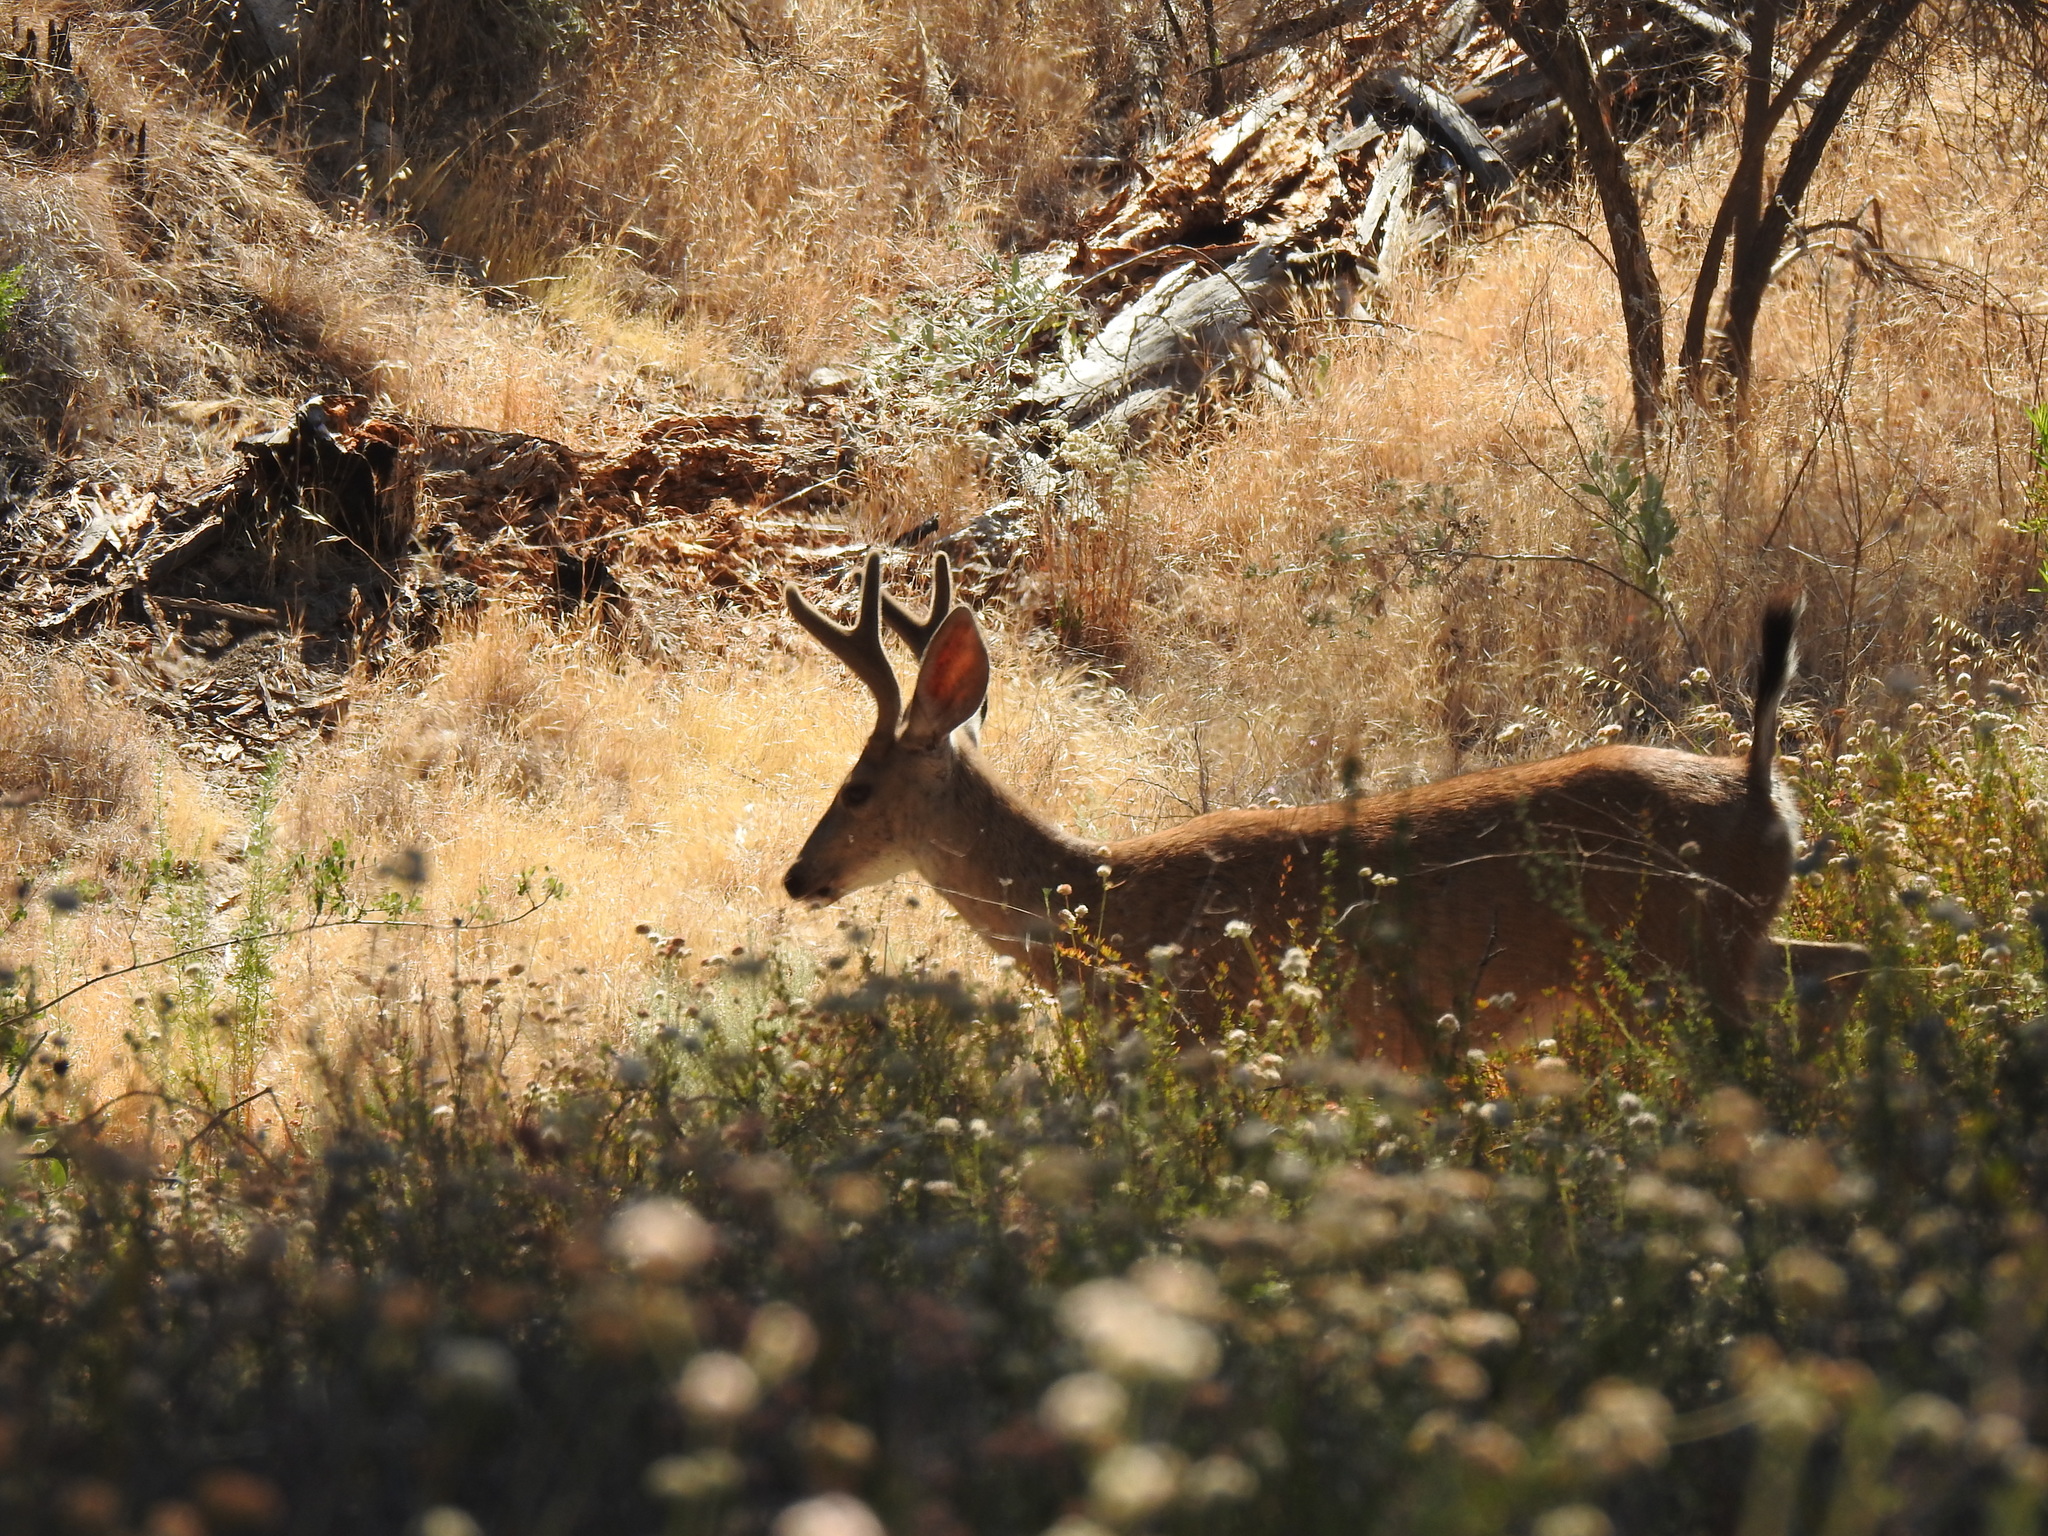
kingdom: Animalia
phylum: Chordata
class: Mammalia
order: Artiodactyla
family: Cervidae
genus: Odocoileus
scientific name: Odocoileus hemionus
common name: Mule deer
